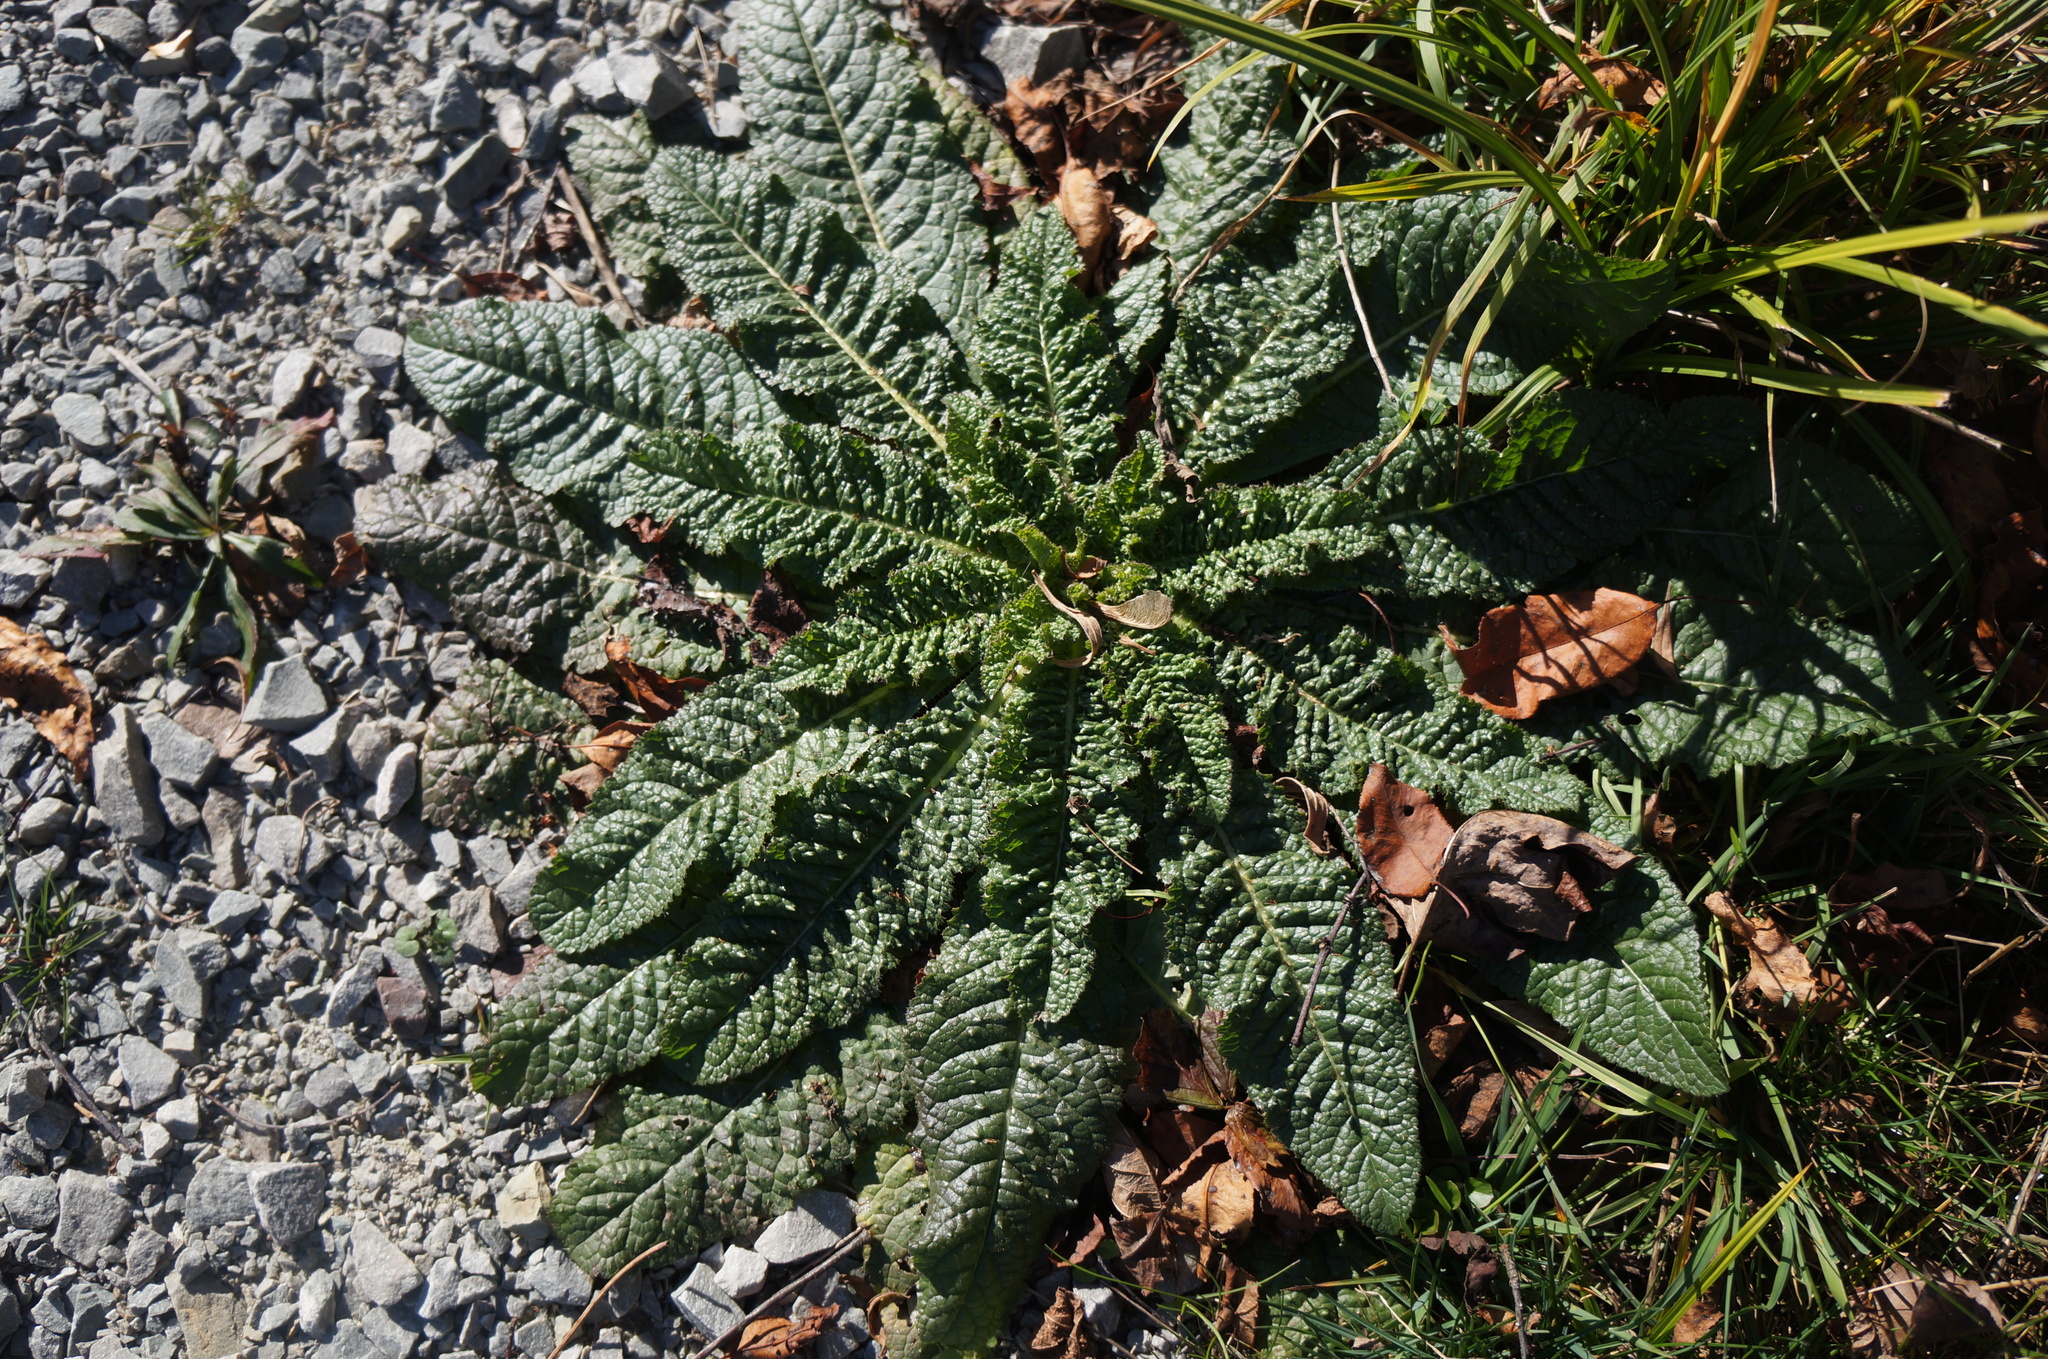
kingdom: Plantae
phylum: Tracheophyta
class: Magnoliopsida
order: Dipsacales
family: Caprifoliaceae
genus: Dipsacus
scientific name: Dipsacus fullonum
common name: Teasel
